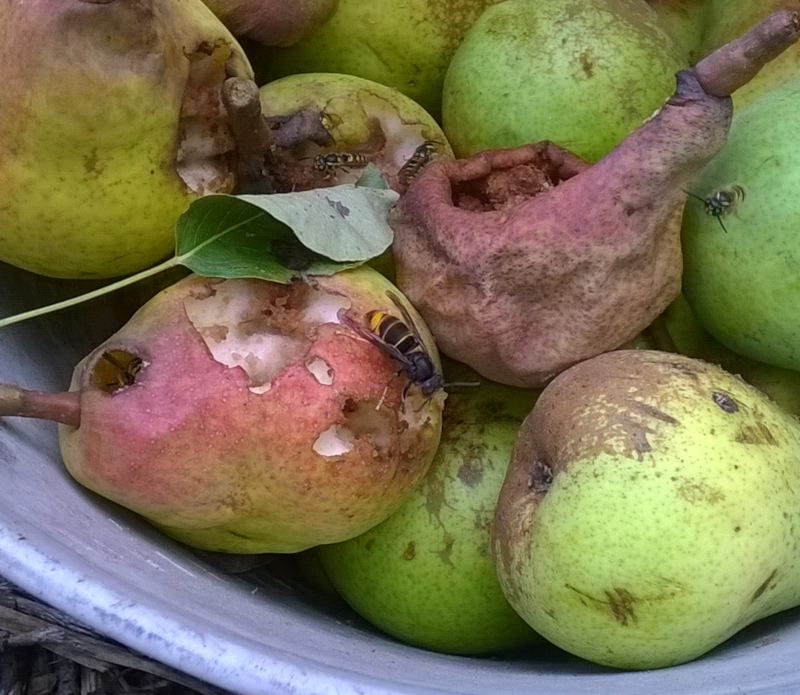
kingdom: Animalia
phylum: Arthropoda
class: Insecta
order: Hymenoptera
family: Vespidae
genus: Vespa
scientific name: Vespa velutina
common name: Asian hornet
